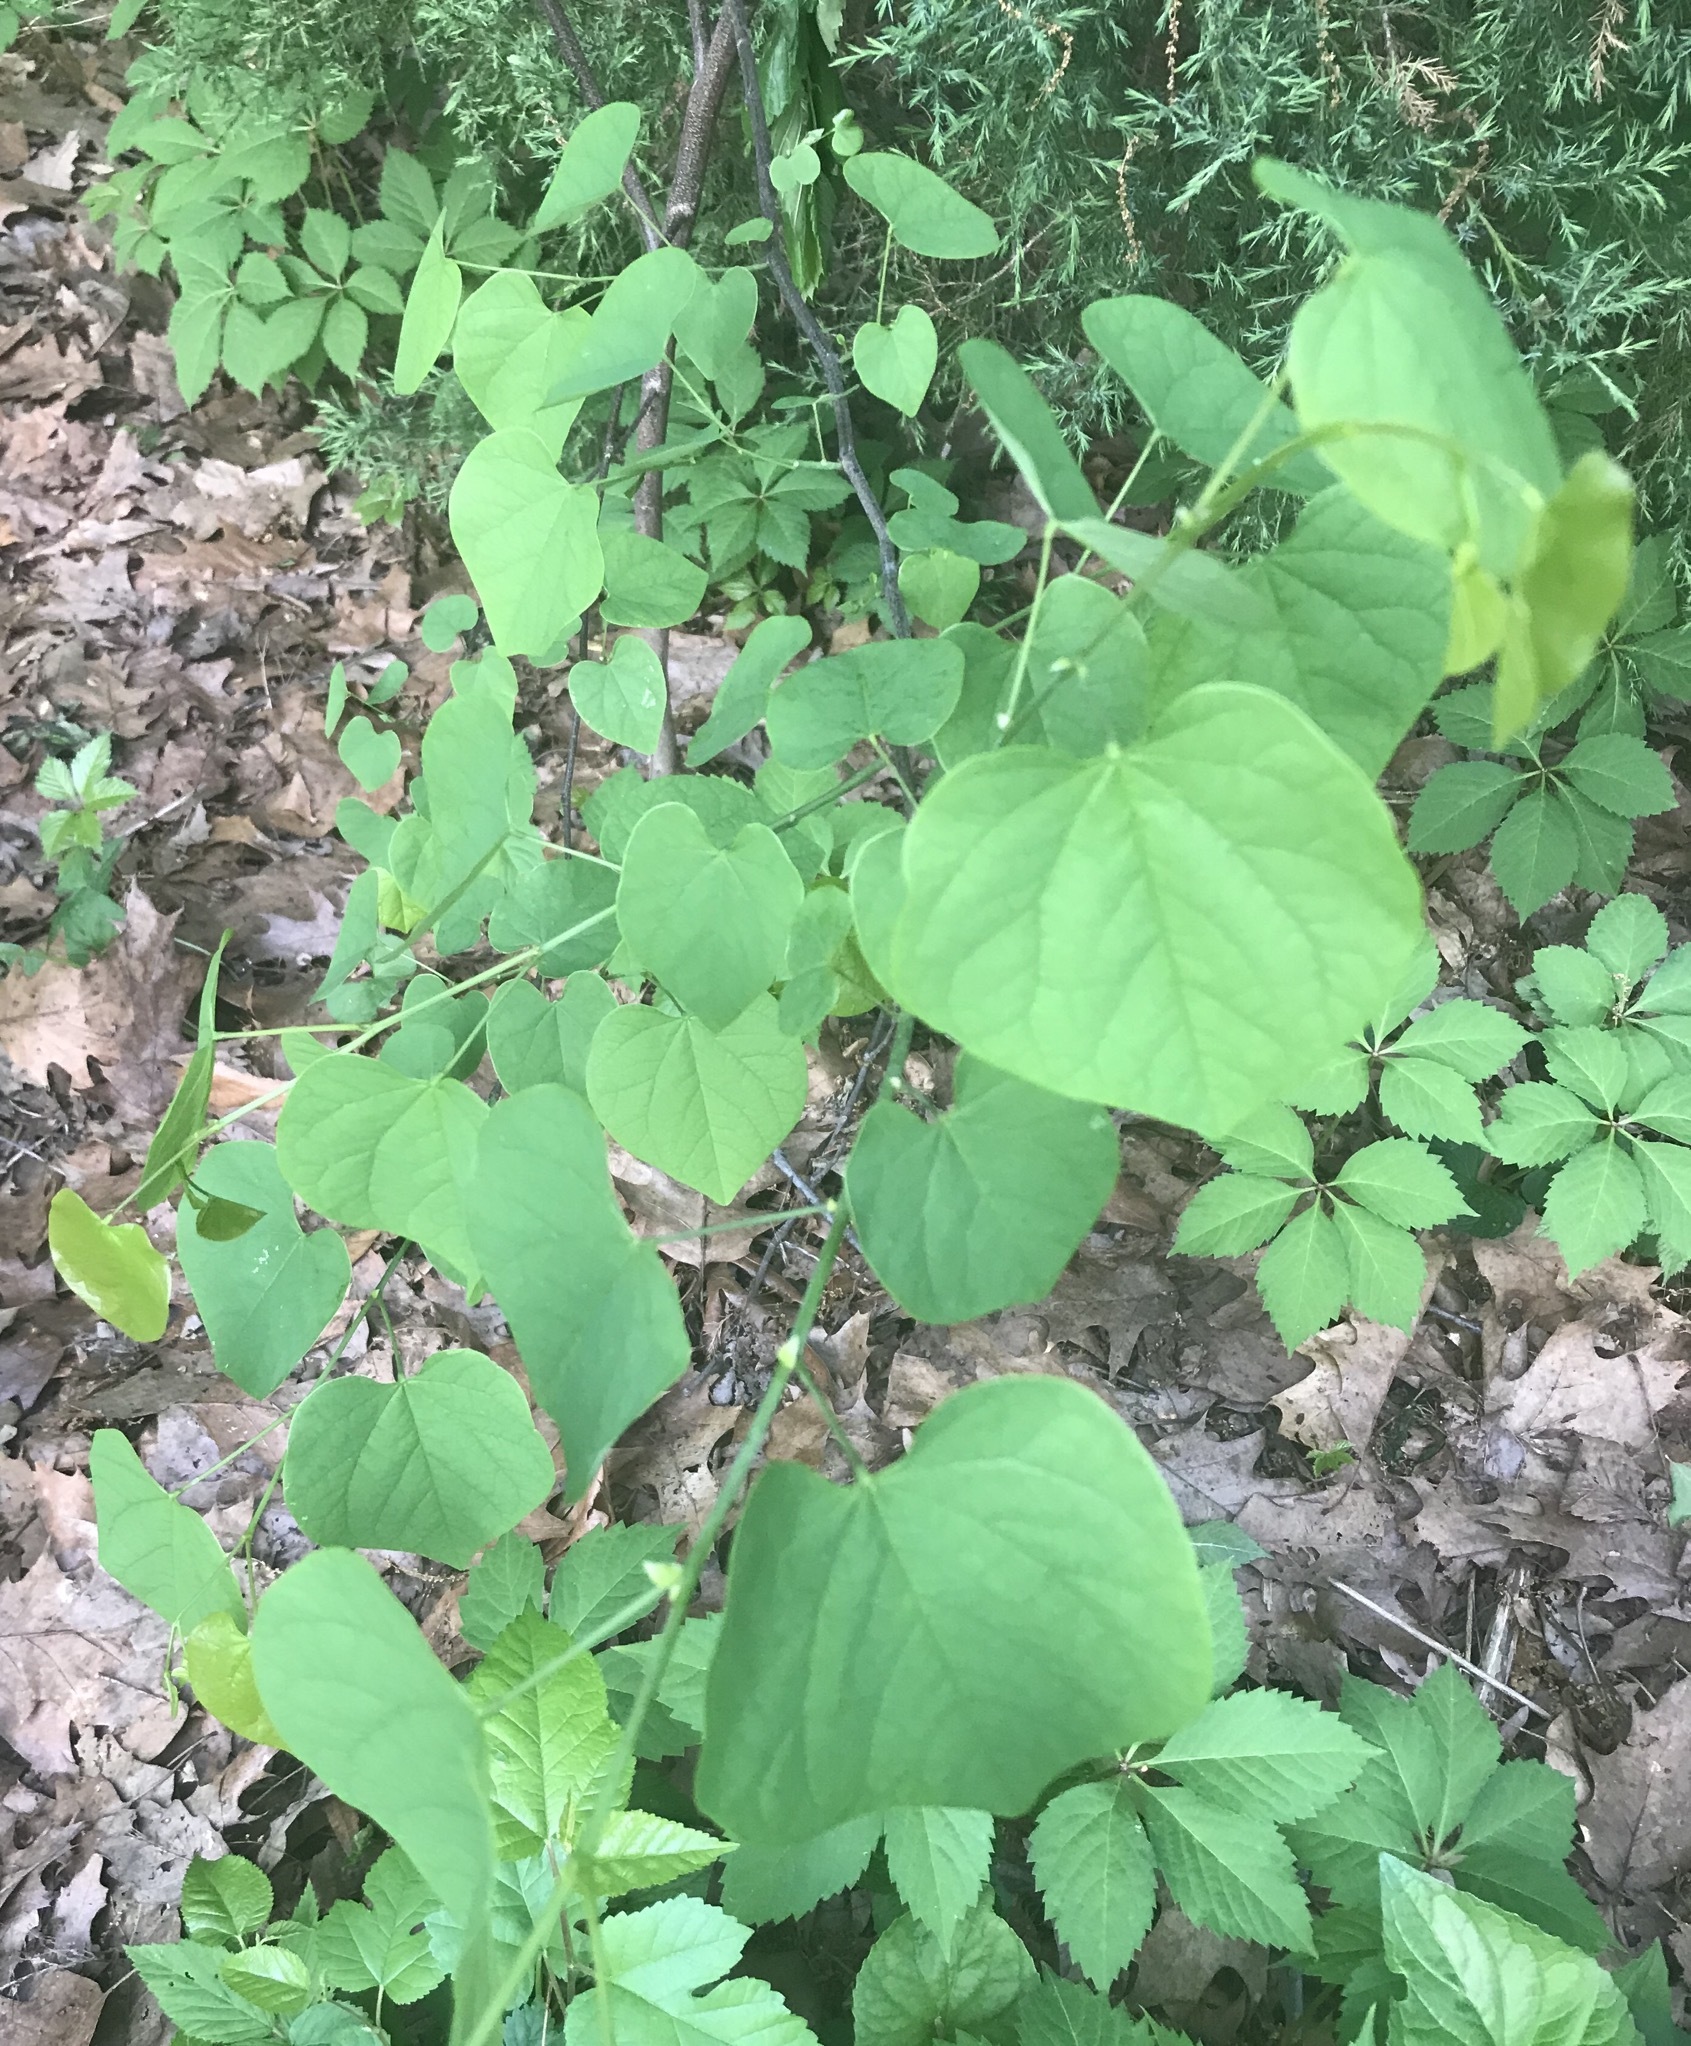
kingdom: Plantae
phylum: Tracheophyta
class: Magnoliopsida
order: Fabales
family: Fabaceae
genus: Cercis
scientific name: Cercis canadensis
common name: Eastern redbud
